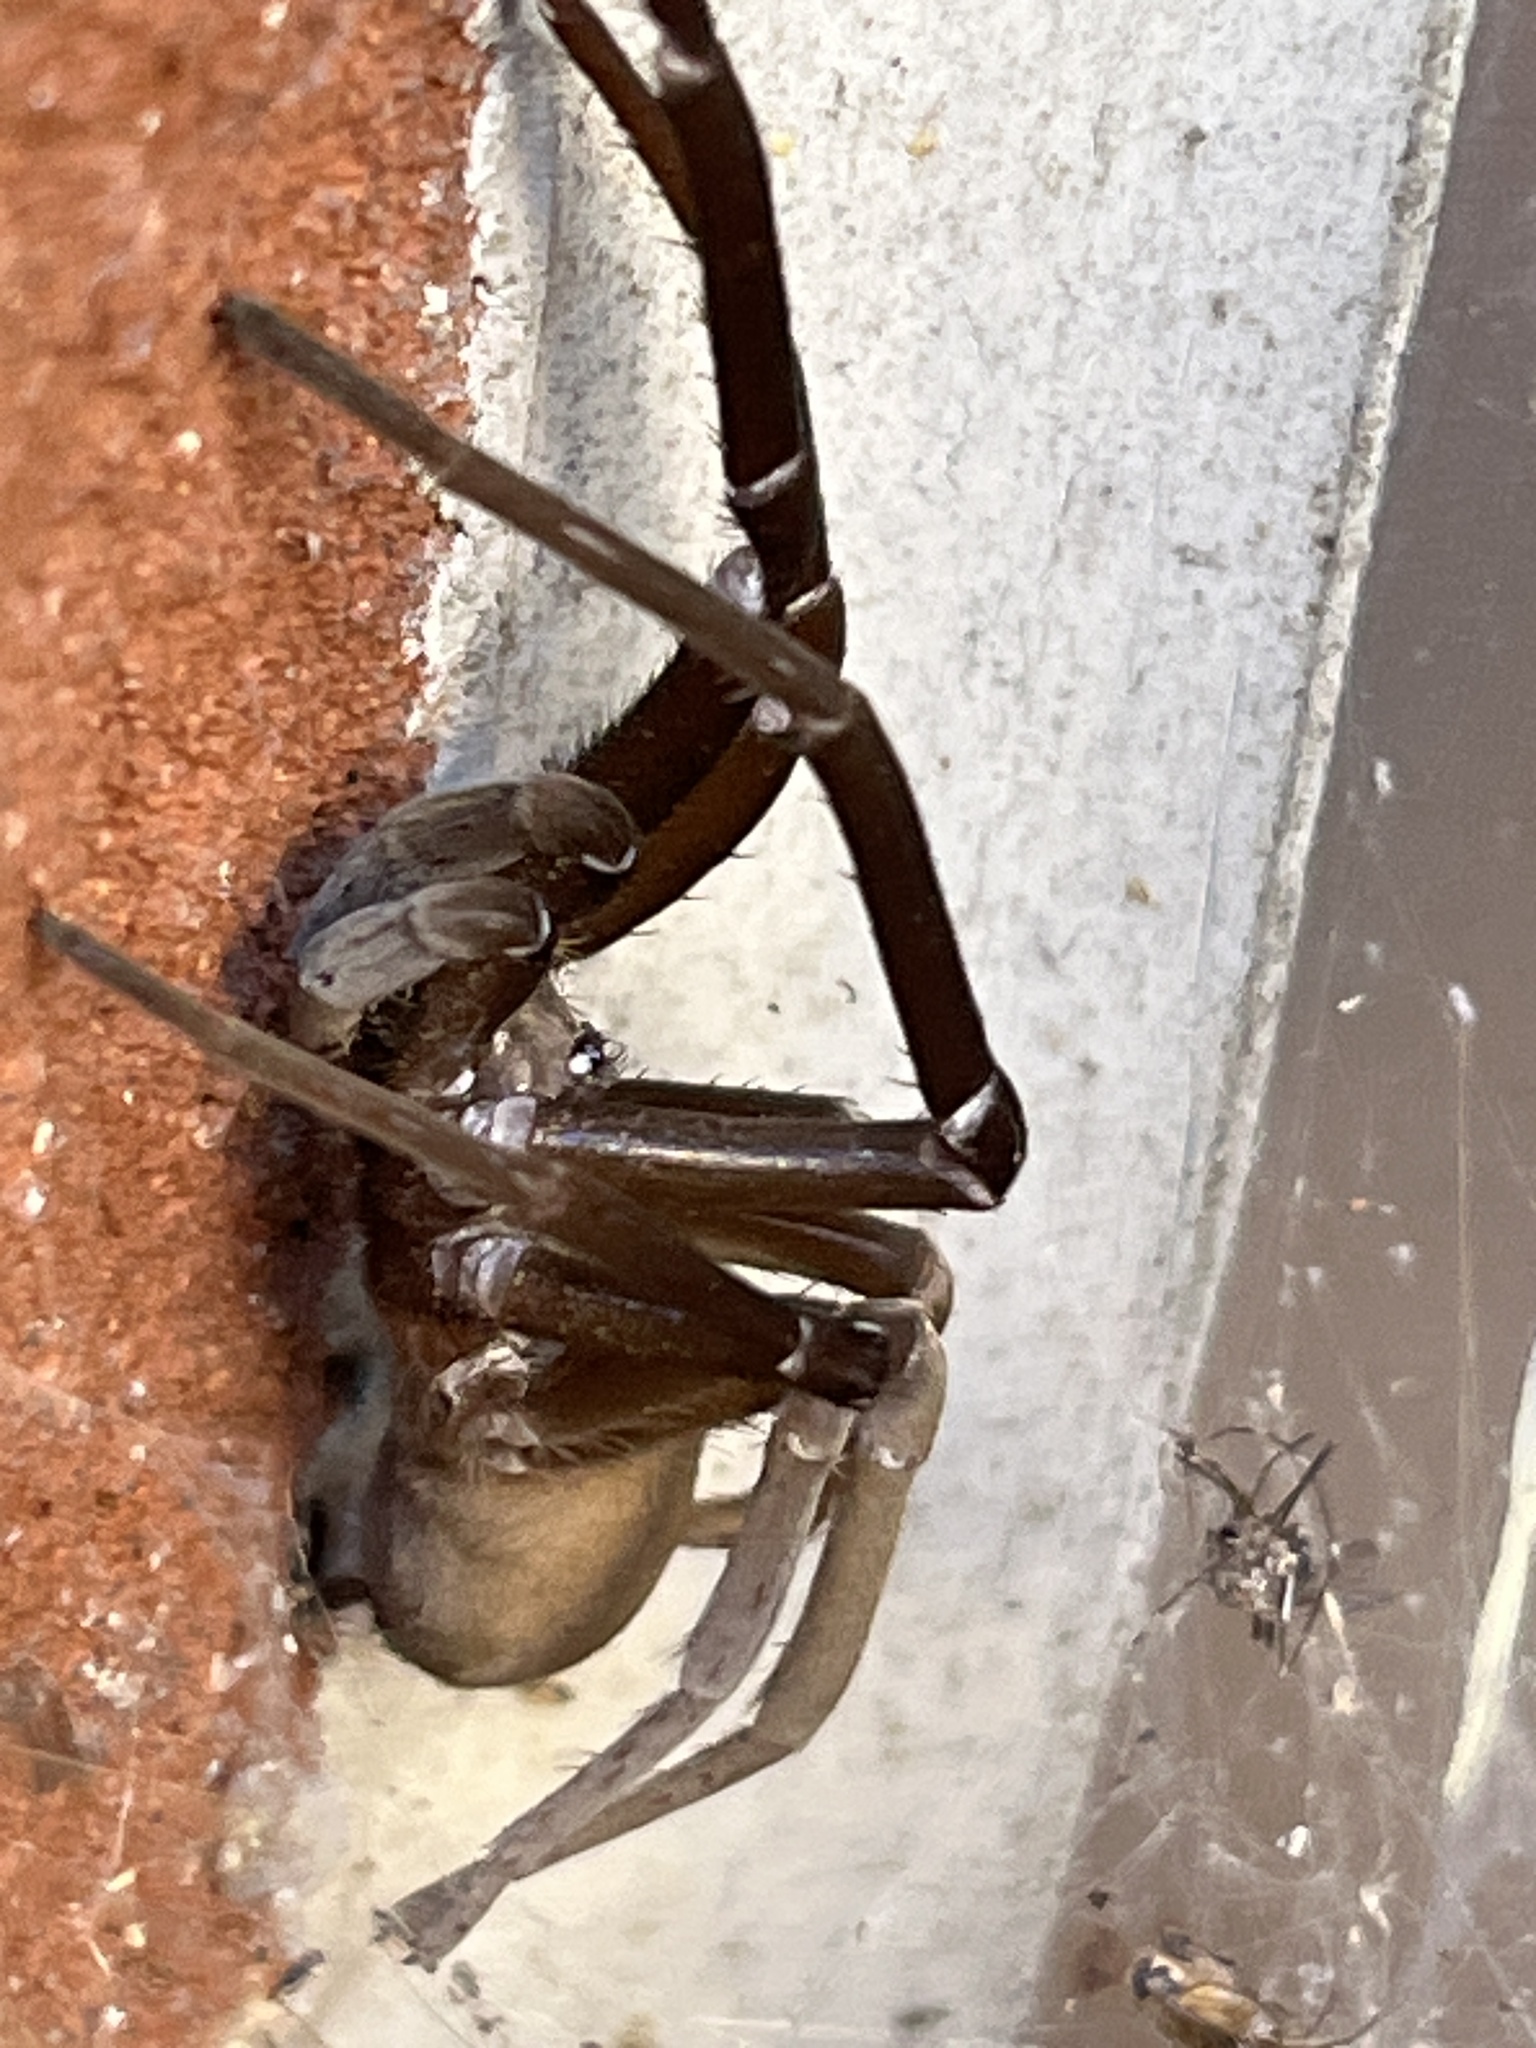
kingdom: Animalia
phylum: Arthropoda
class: Arachnida
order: Araneae
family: Filistatidae
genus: Kukulcania
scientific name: Kukulcania hibernalis
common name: Crevice weaver
